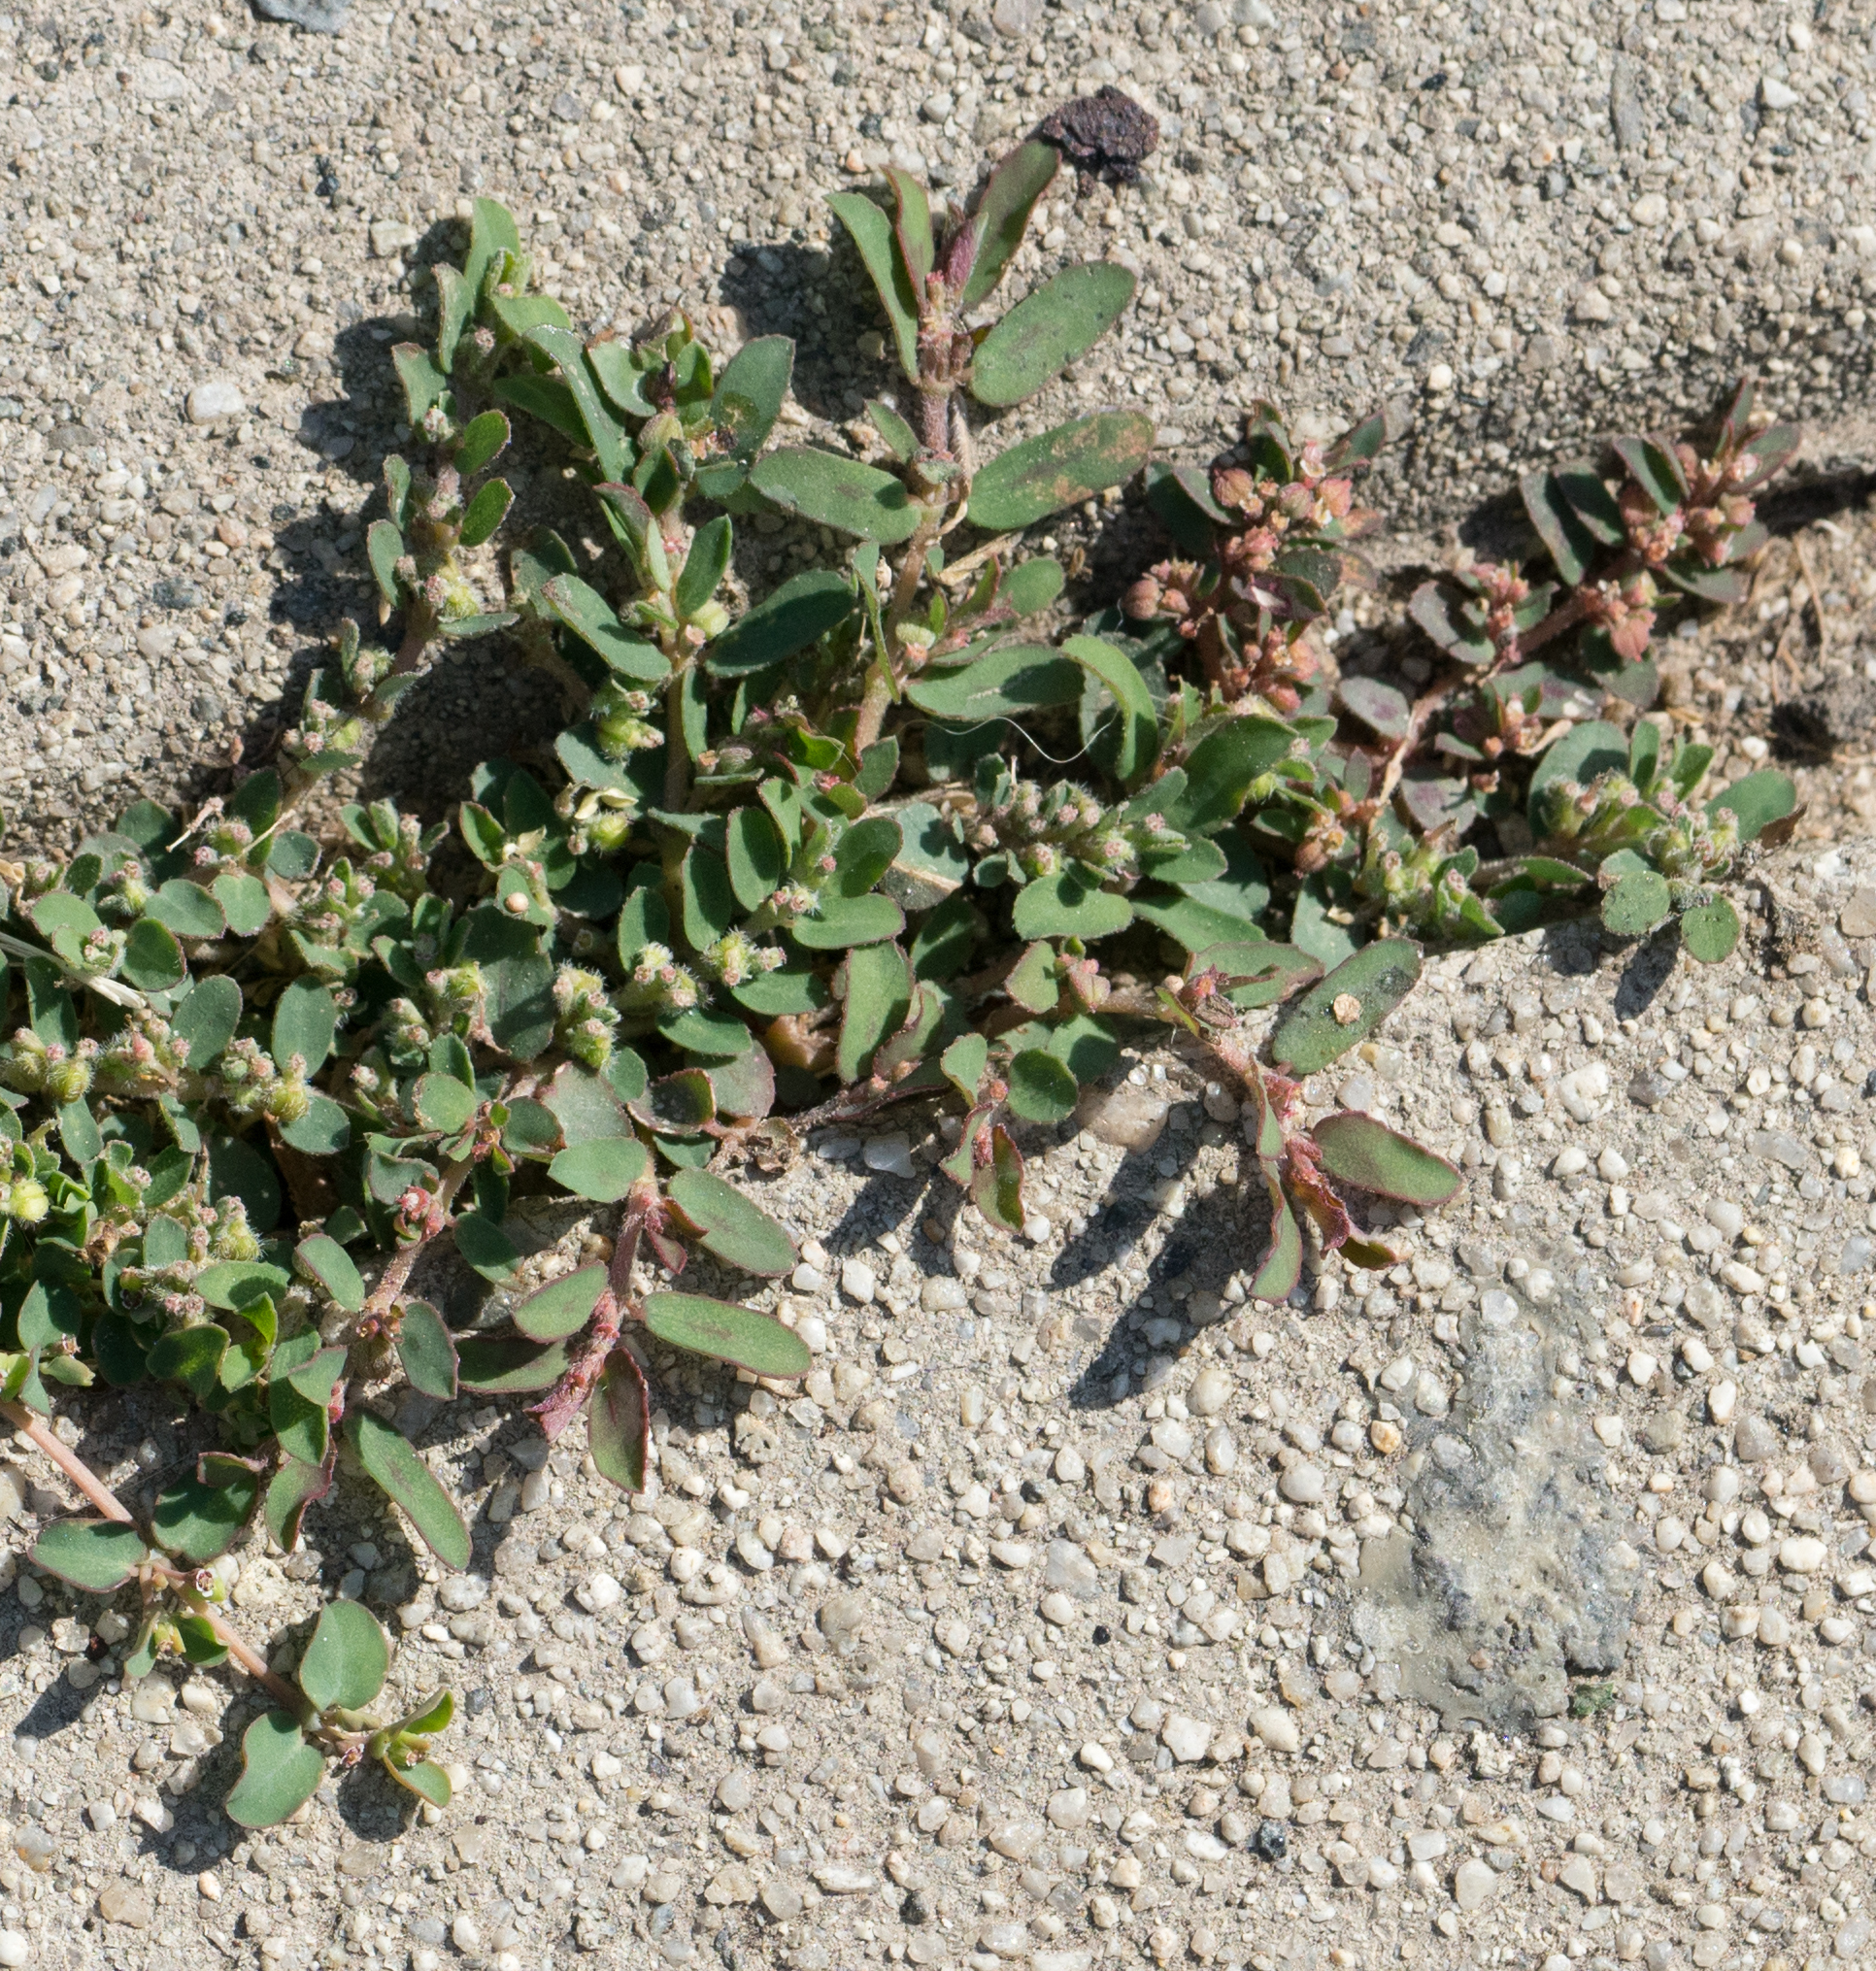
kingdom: Plantae
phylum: Tracheophyta
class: Magnoliopsida
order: Malpighiales
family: Euphorbiaceae
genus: Euphorbia
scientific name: Euphorbia maculata
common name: Spotted spurge
